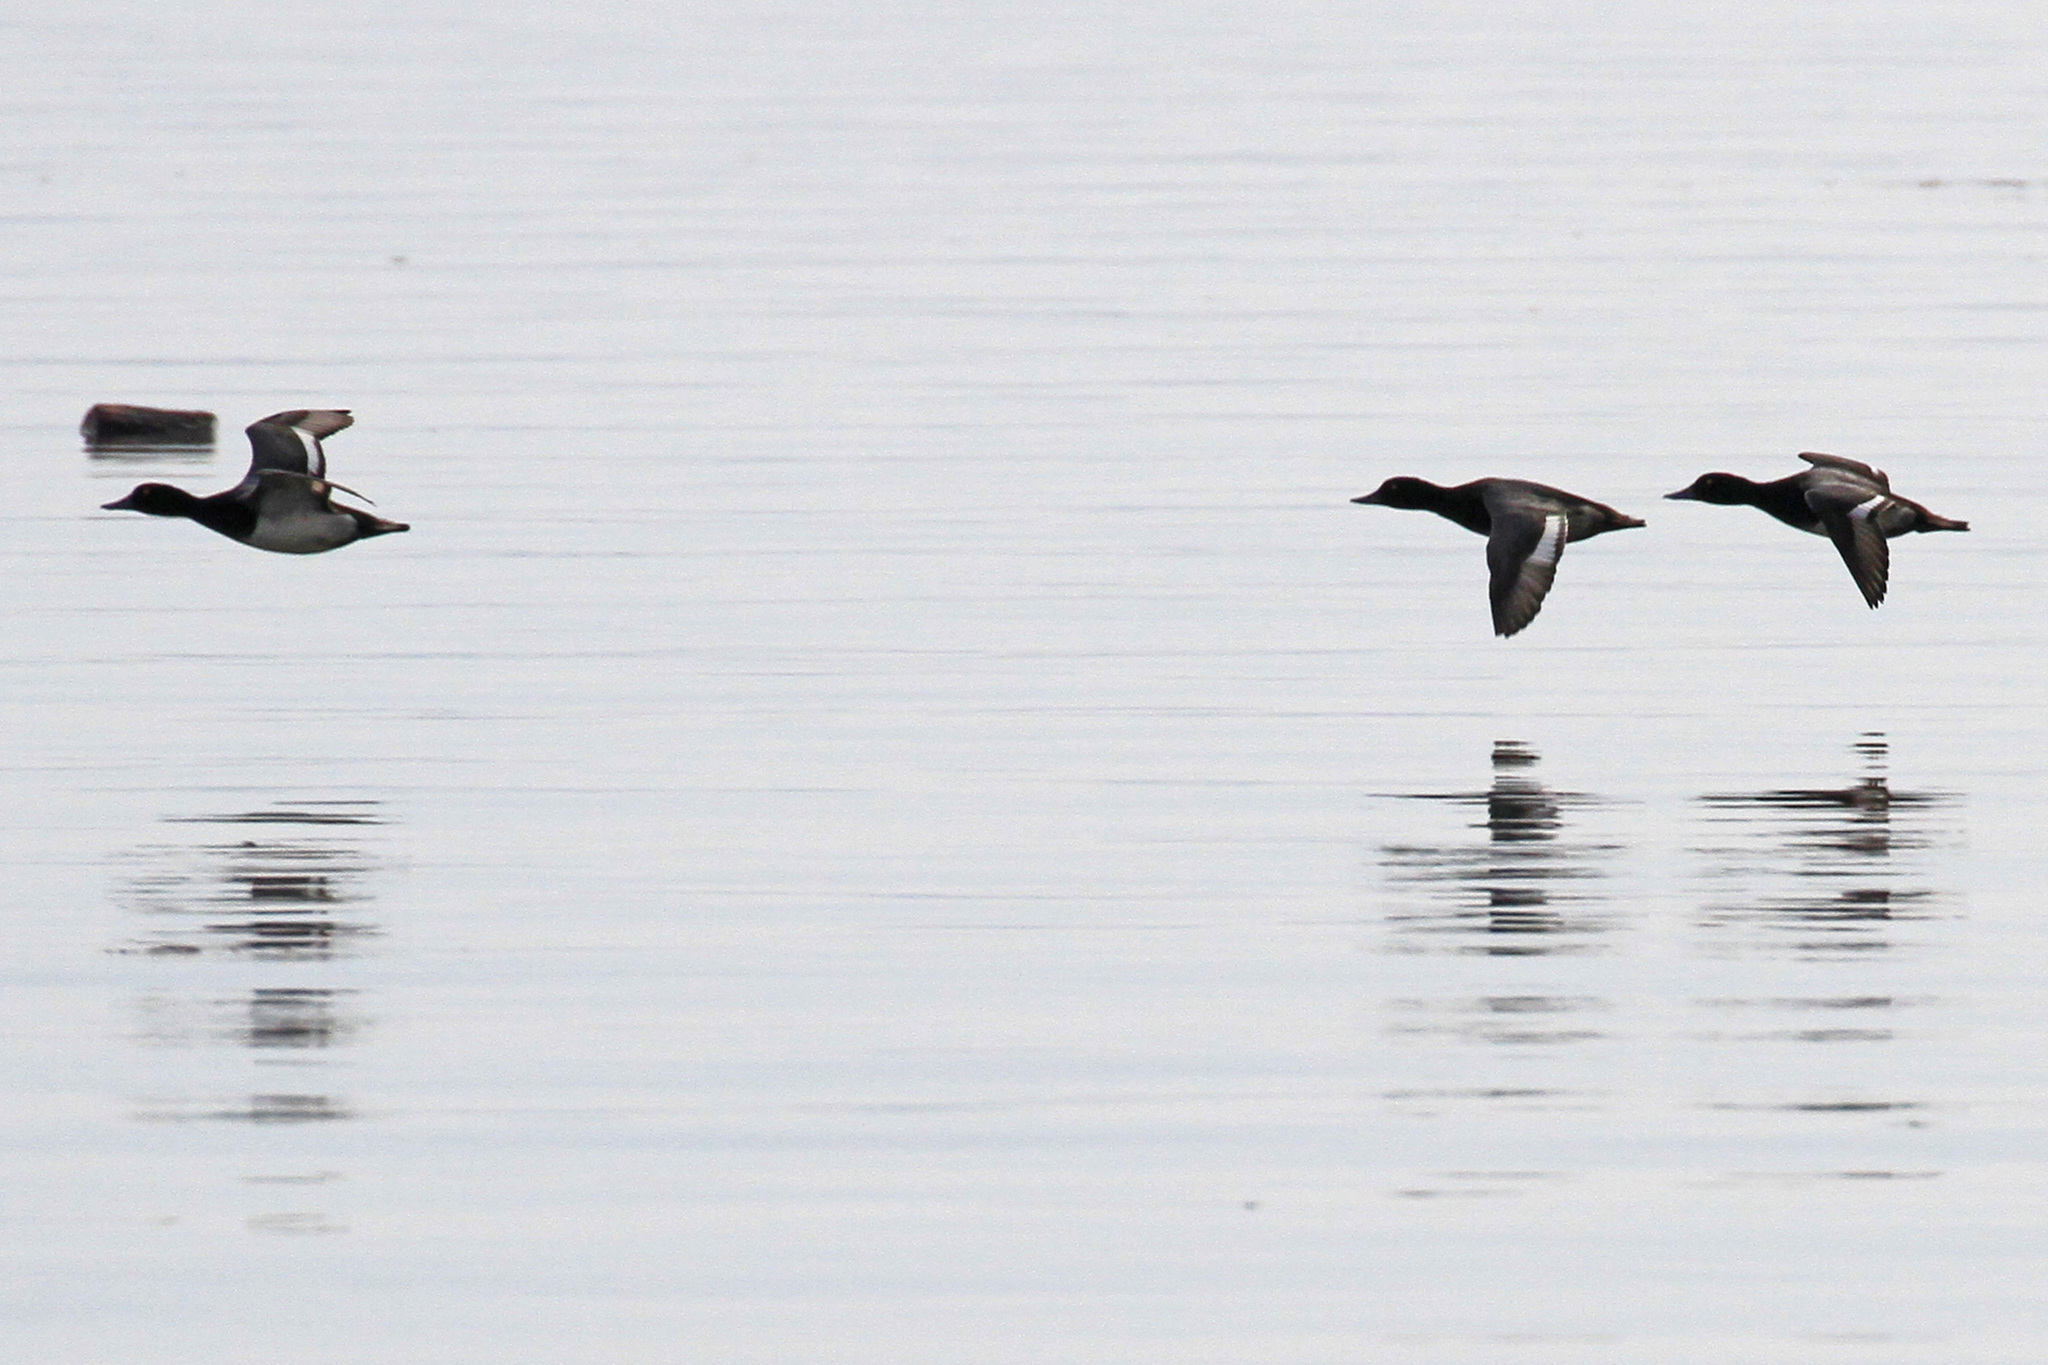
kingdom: Animalia
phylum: Chordata
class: Aves
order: Anseriformes
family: Anatidae
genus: Aythya
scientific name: Aythya affinis
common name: Lesser scaup
